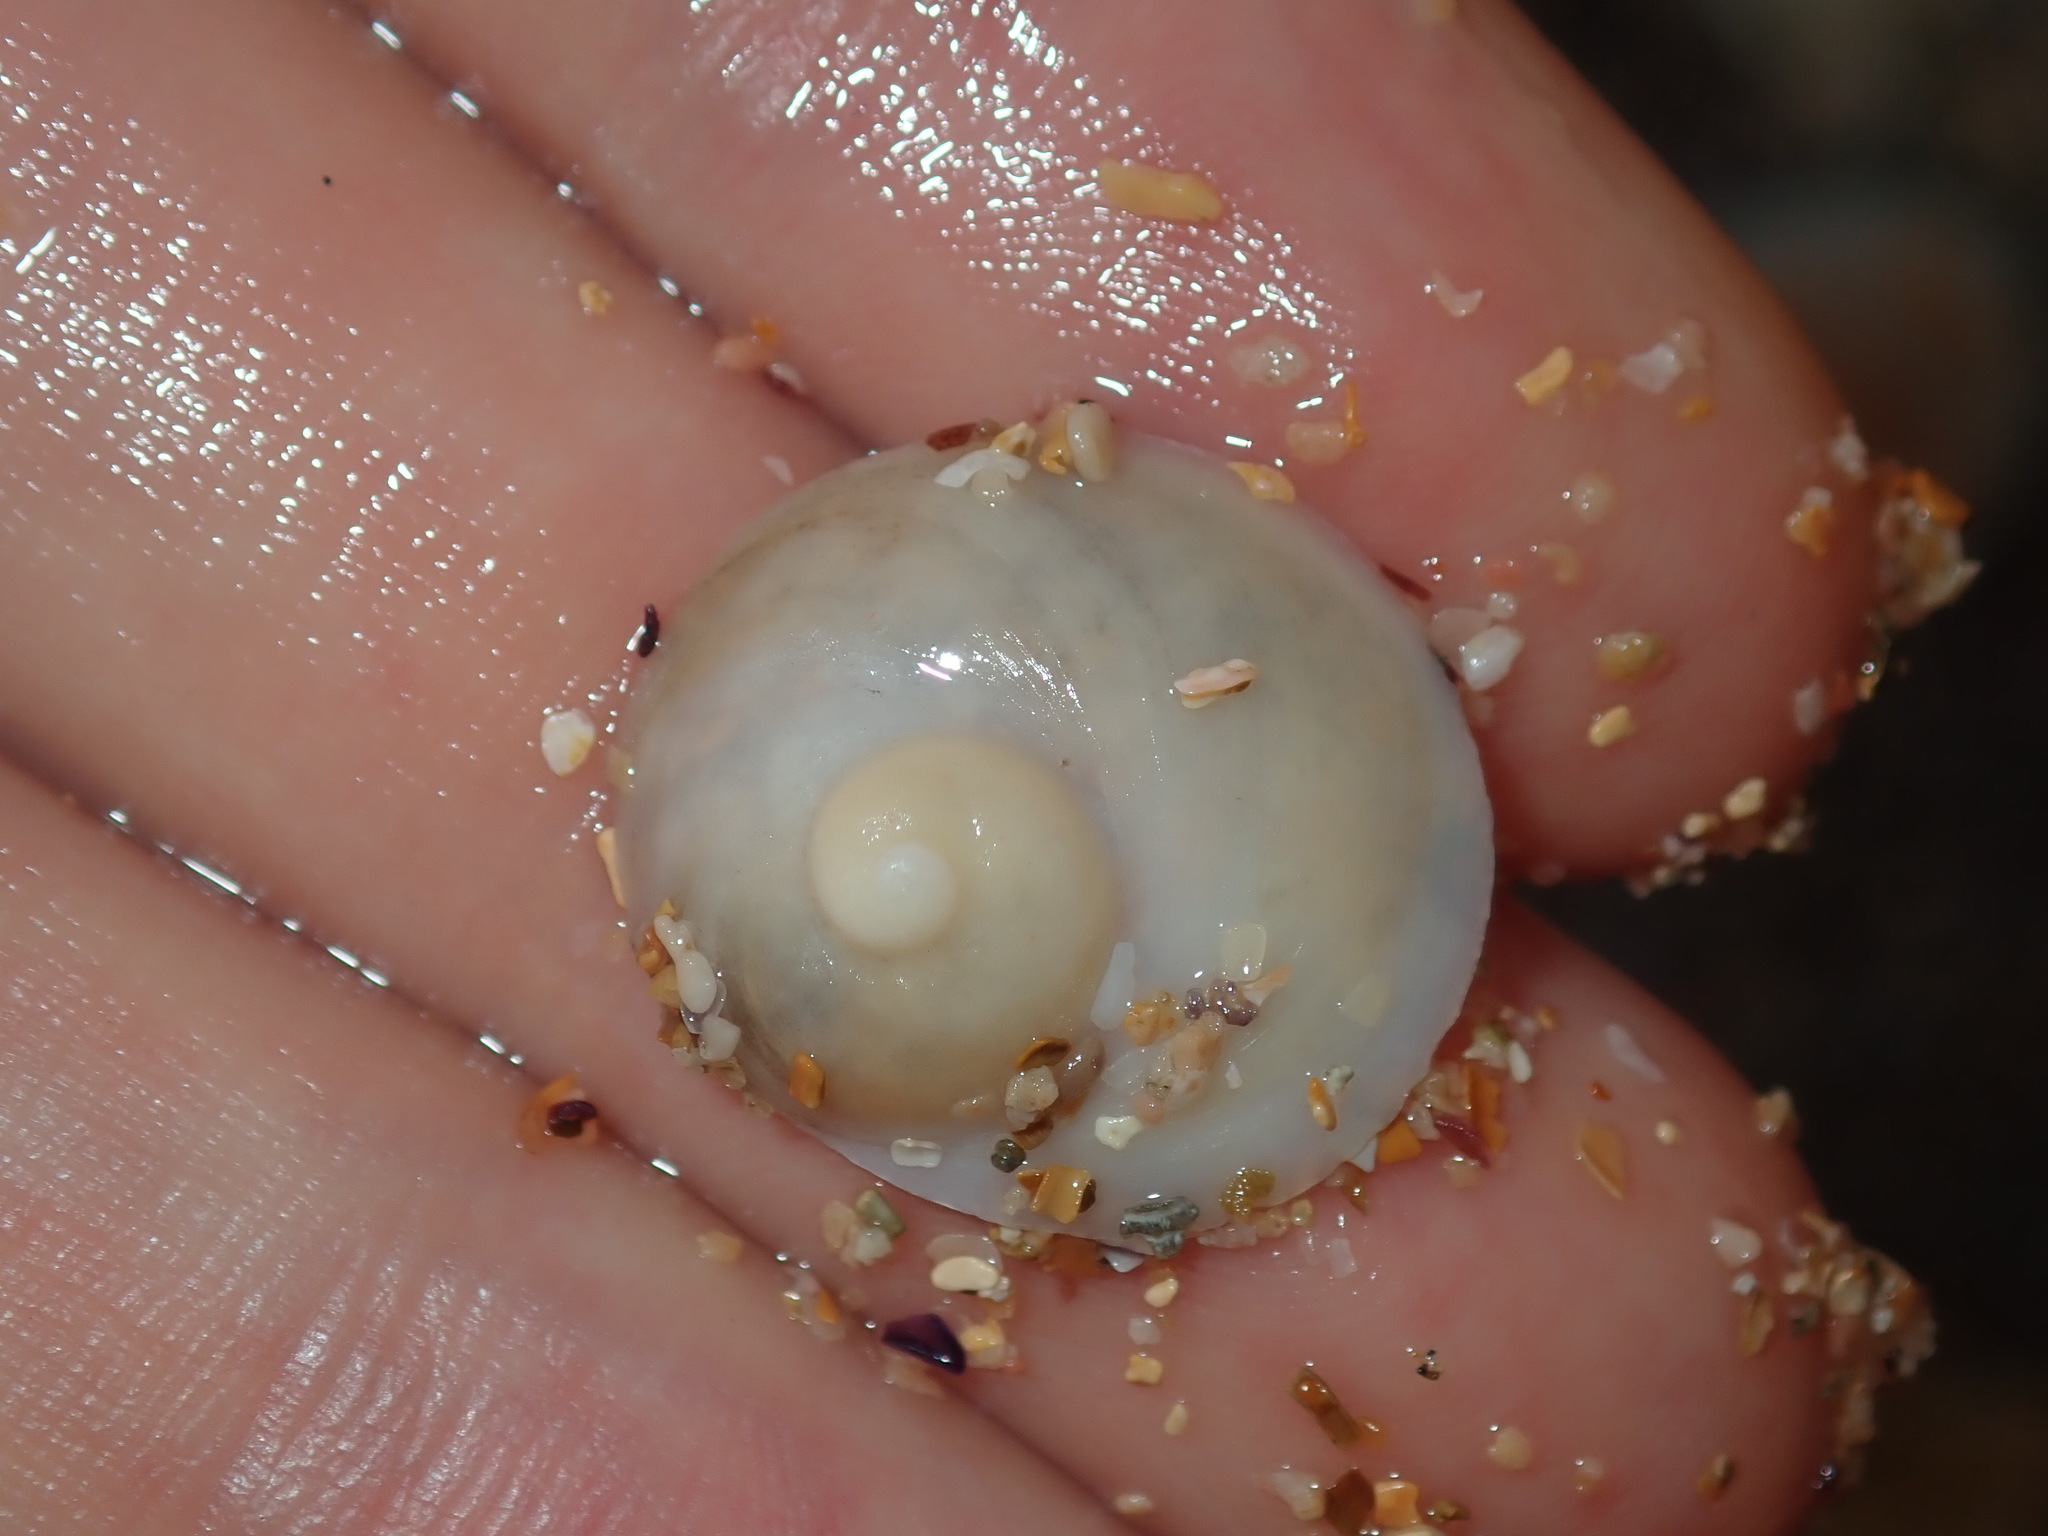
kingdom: Animalia
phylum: Mollusca
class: Gastropoda
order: Littorinimorpha
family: Calyptraeidae
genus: Sigapatella
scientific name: Sigapatella calyptraeformis
